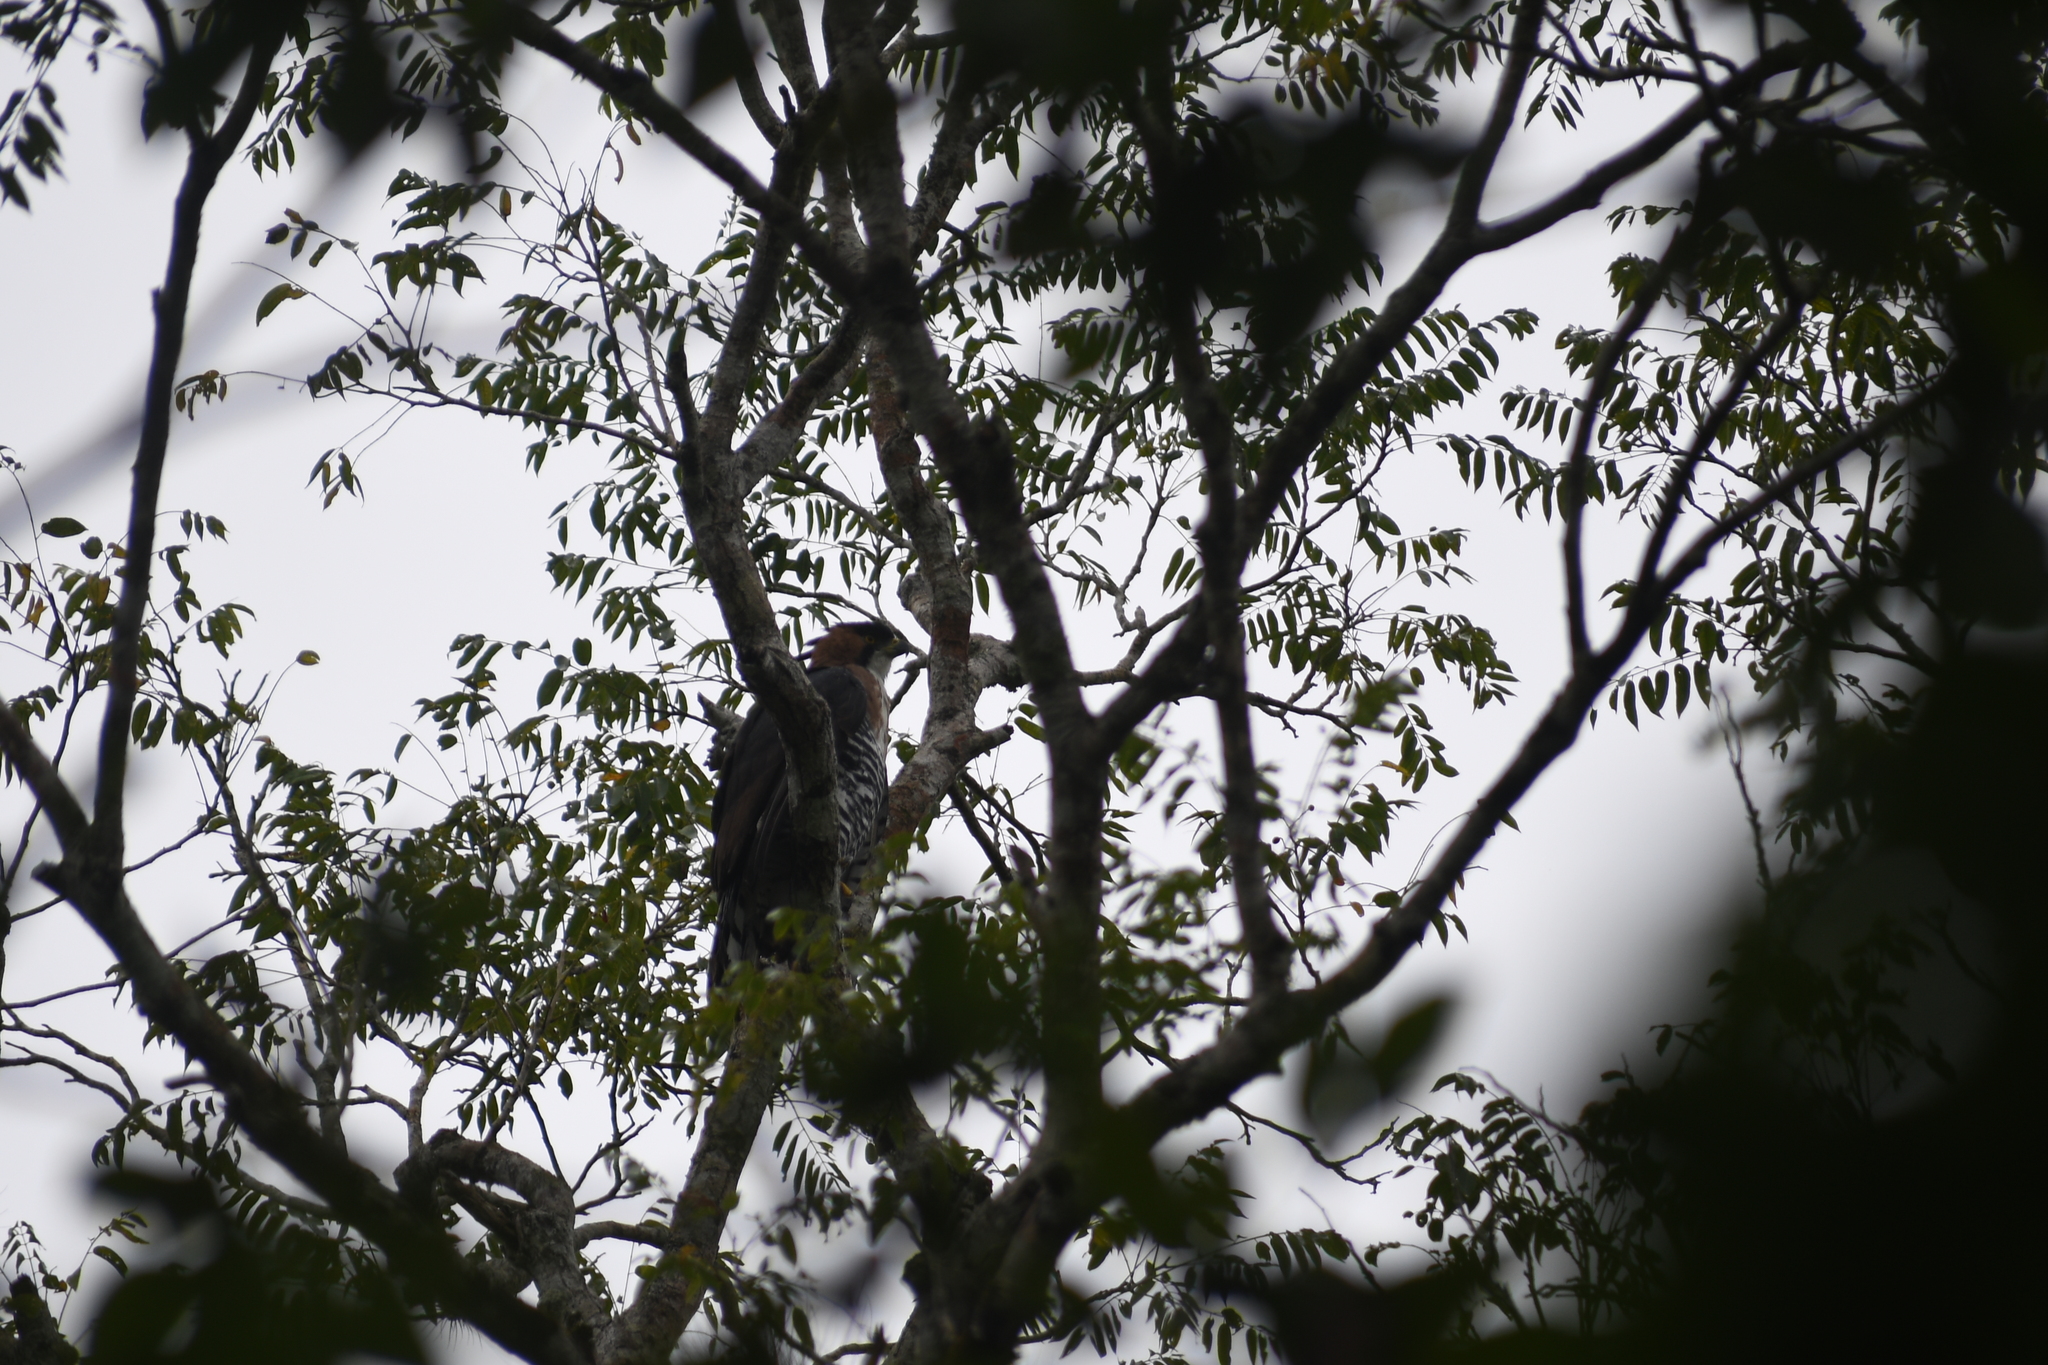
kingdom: Animalia
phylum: Chordata
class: Aves
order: Accipitriformes
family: Accipitridae
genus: Spizaetus
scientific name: Spizaetus ornatus
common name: Ornate hawk-eagle
